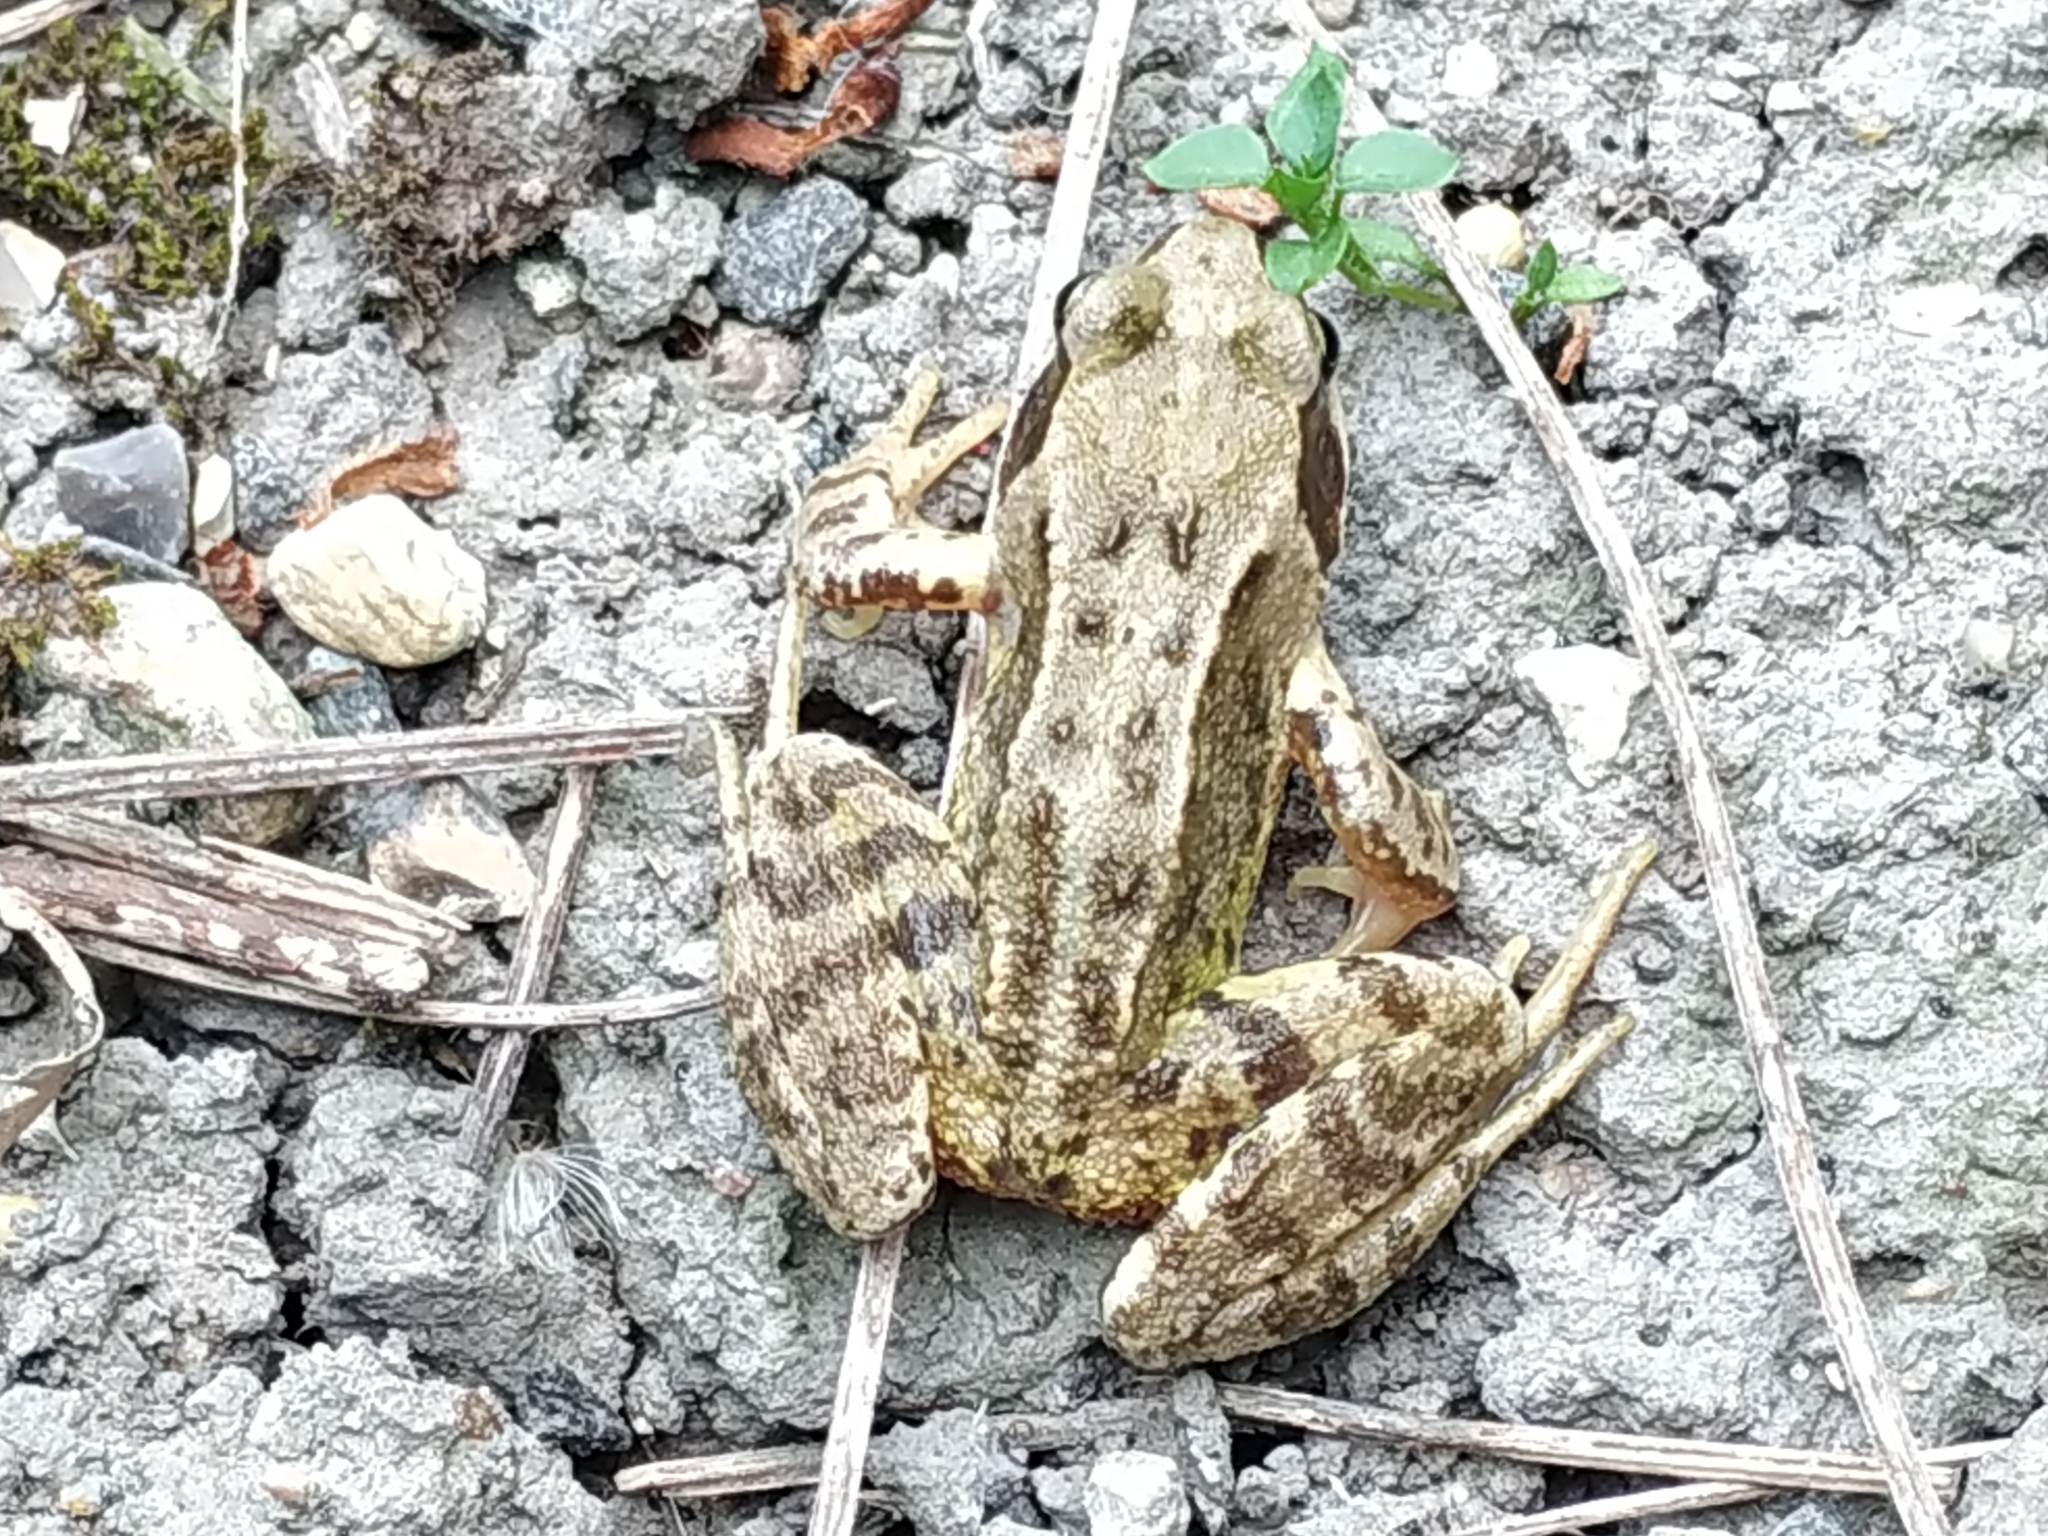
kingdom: Animalia
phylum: Chordata
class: Amphibia
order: Anura
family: Ranidae
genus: Rana
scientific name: Rana temporaria
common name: Common frog
